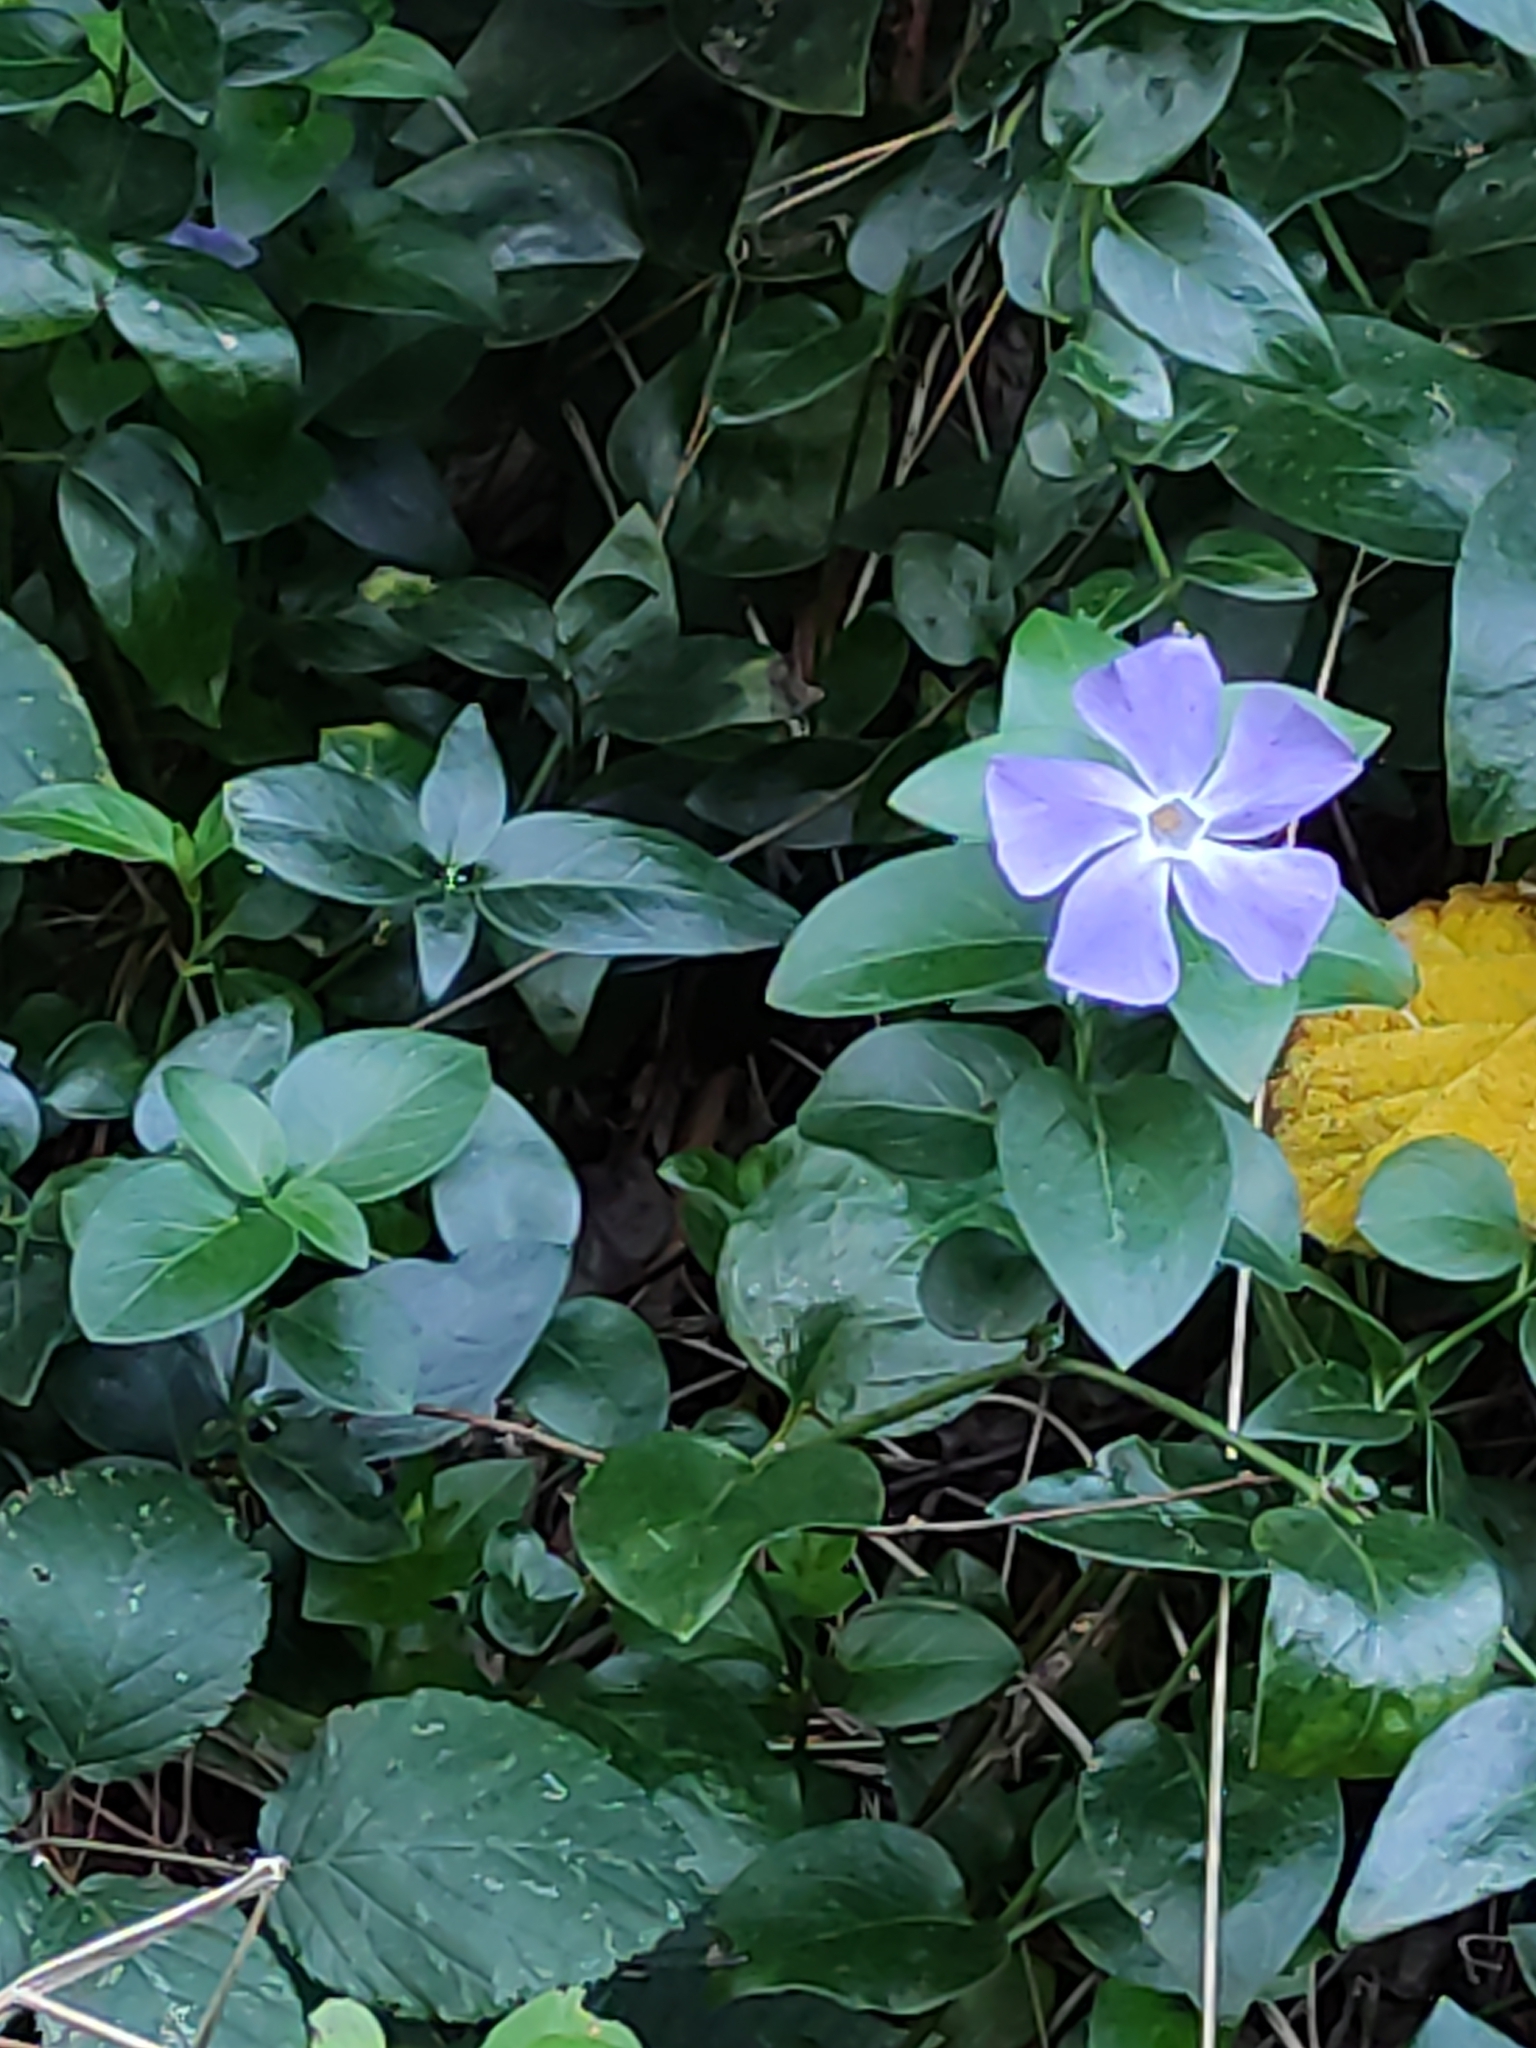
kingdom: Plantae
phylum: Tracheophyta
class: Magnoliopsida
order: Gentianales
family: Apocynaceae
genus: Vinca
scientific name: Vinca major
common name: Greater periwinkle
